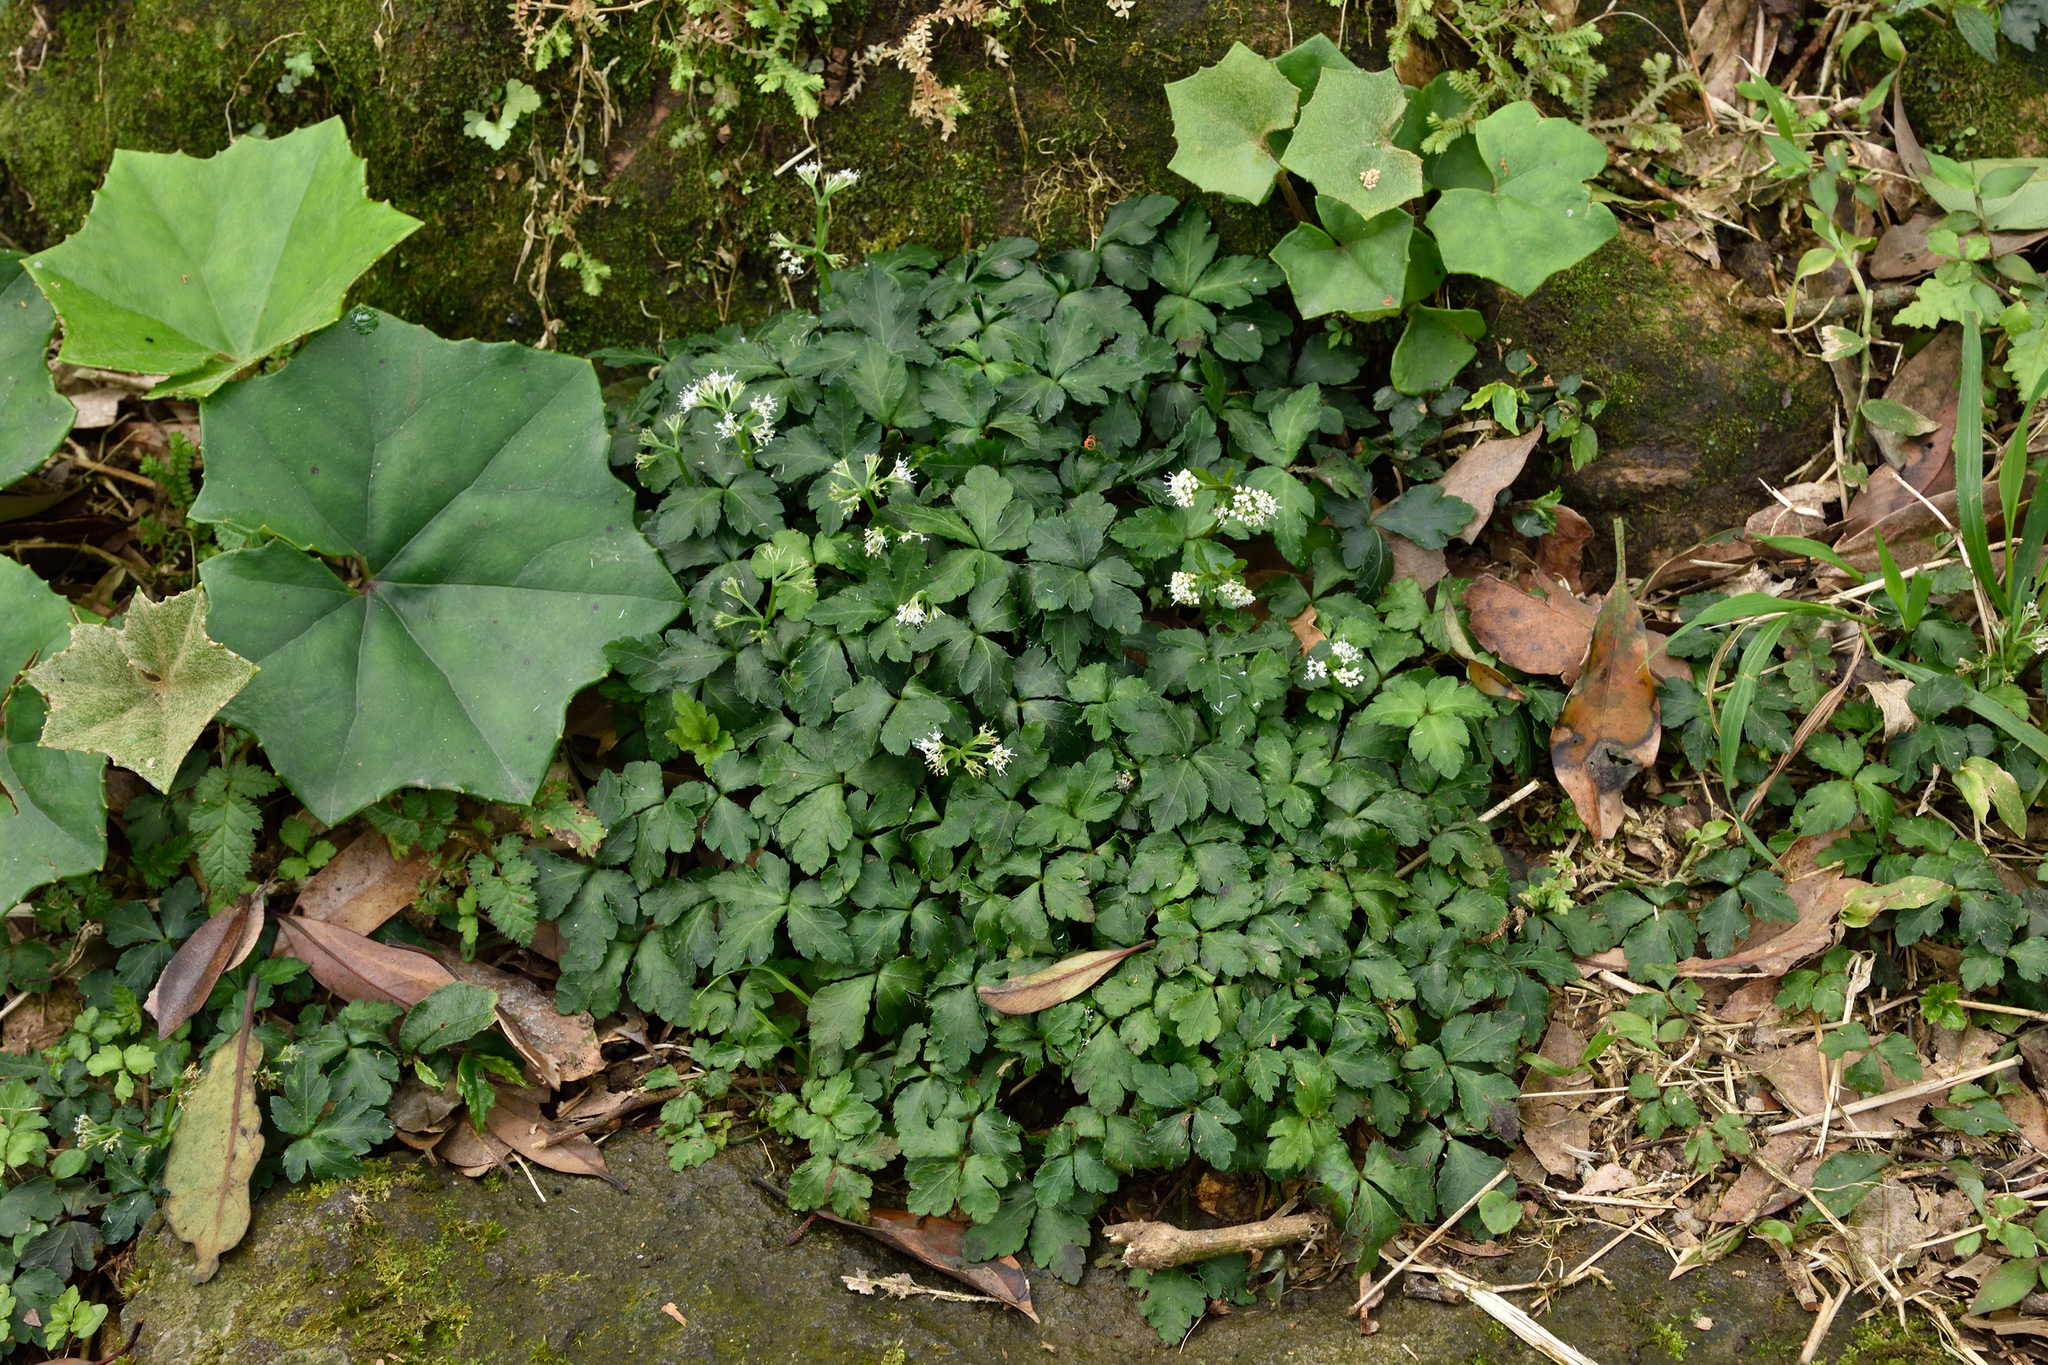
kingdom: Plantae
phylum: Tracheophyta
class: Magnoliopsida
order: Apiales
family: Apiaceae
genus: Sanicula
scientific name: Sanicula lamelligera
